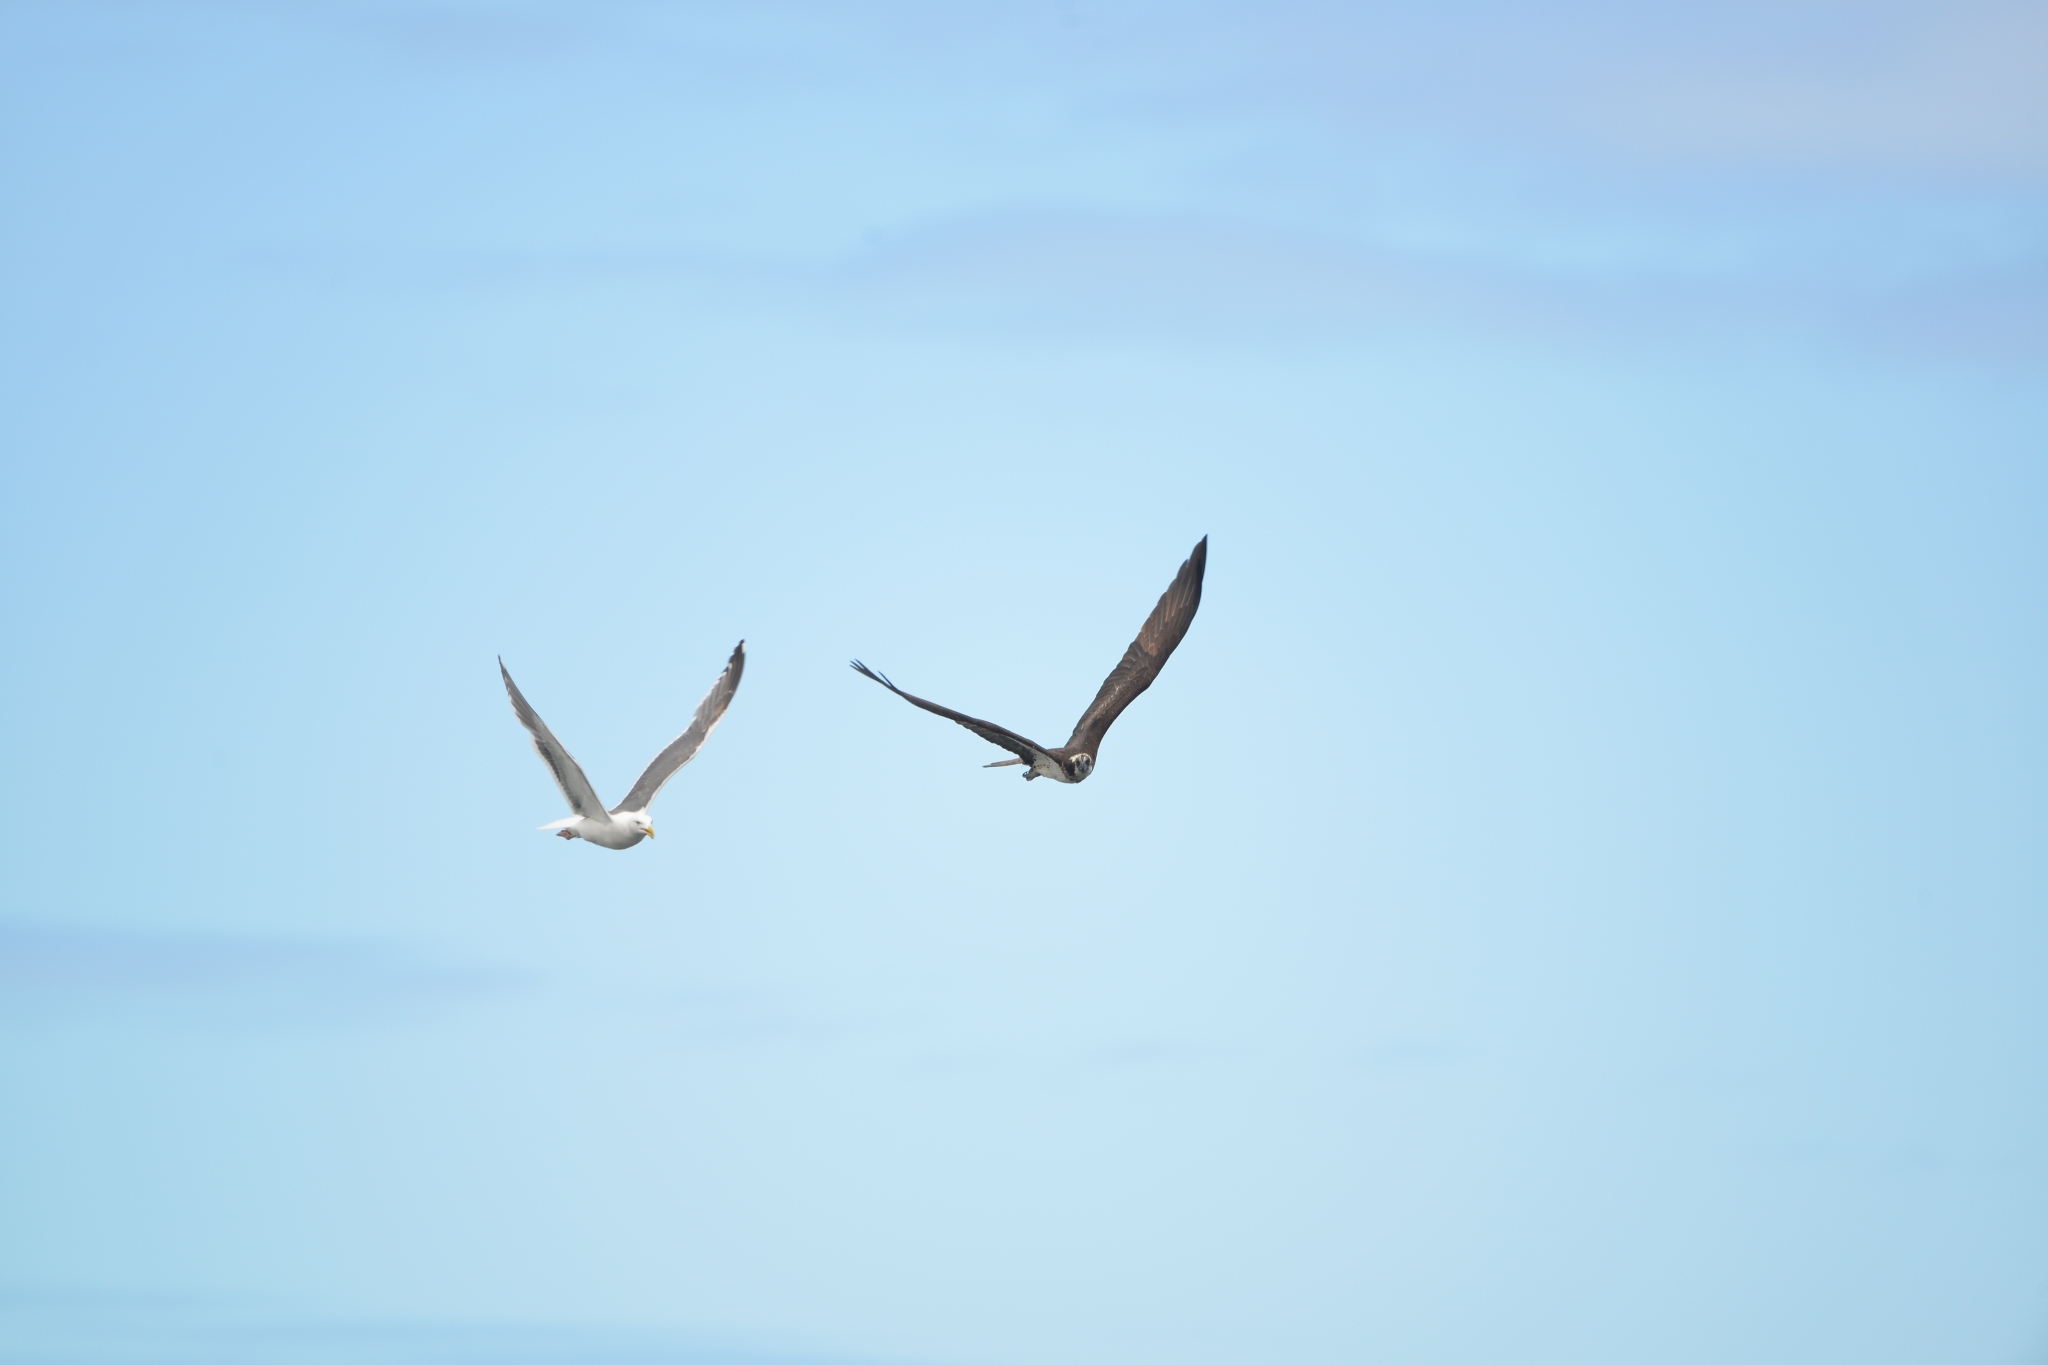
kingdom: Animalia
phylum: Chordata
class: Aves
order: Accipitriformes
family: Pandionidae
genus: Pandion
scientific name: Pandion haliaetus
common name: Osprey
